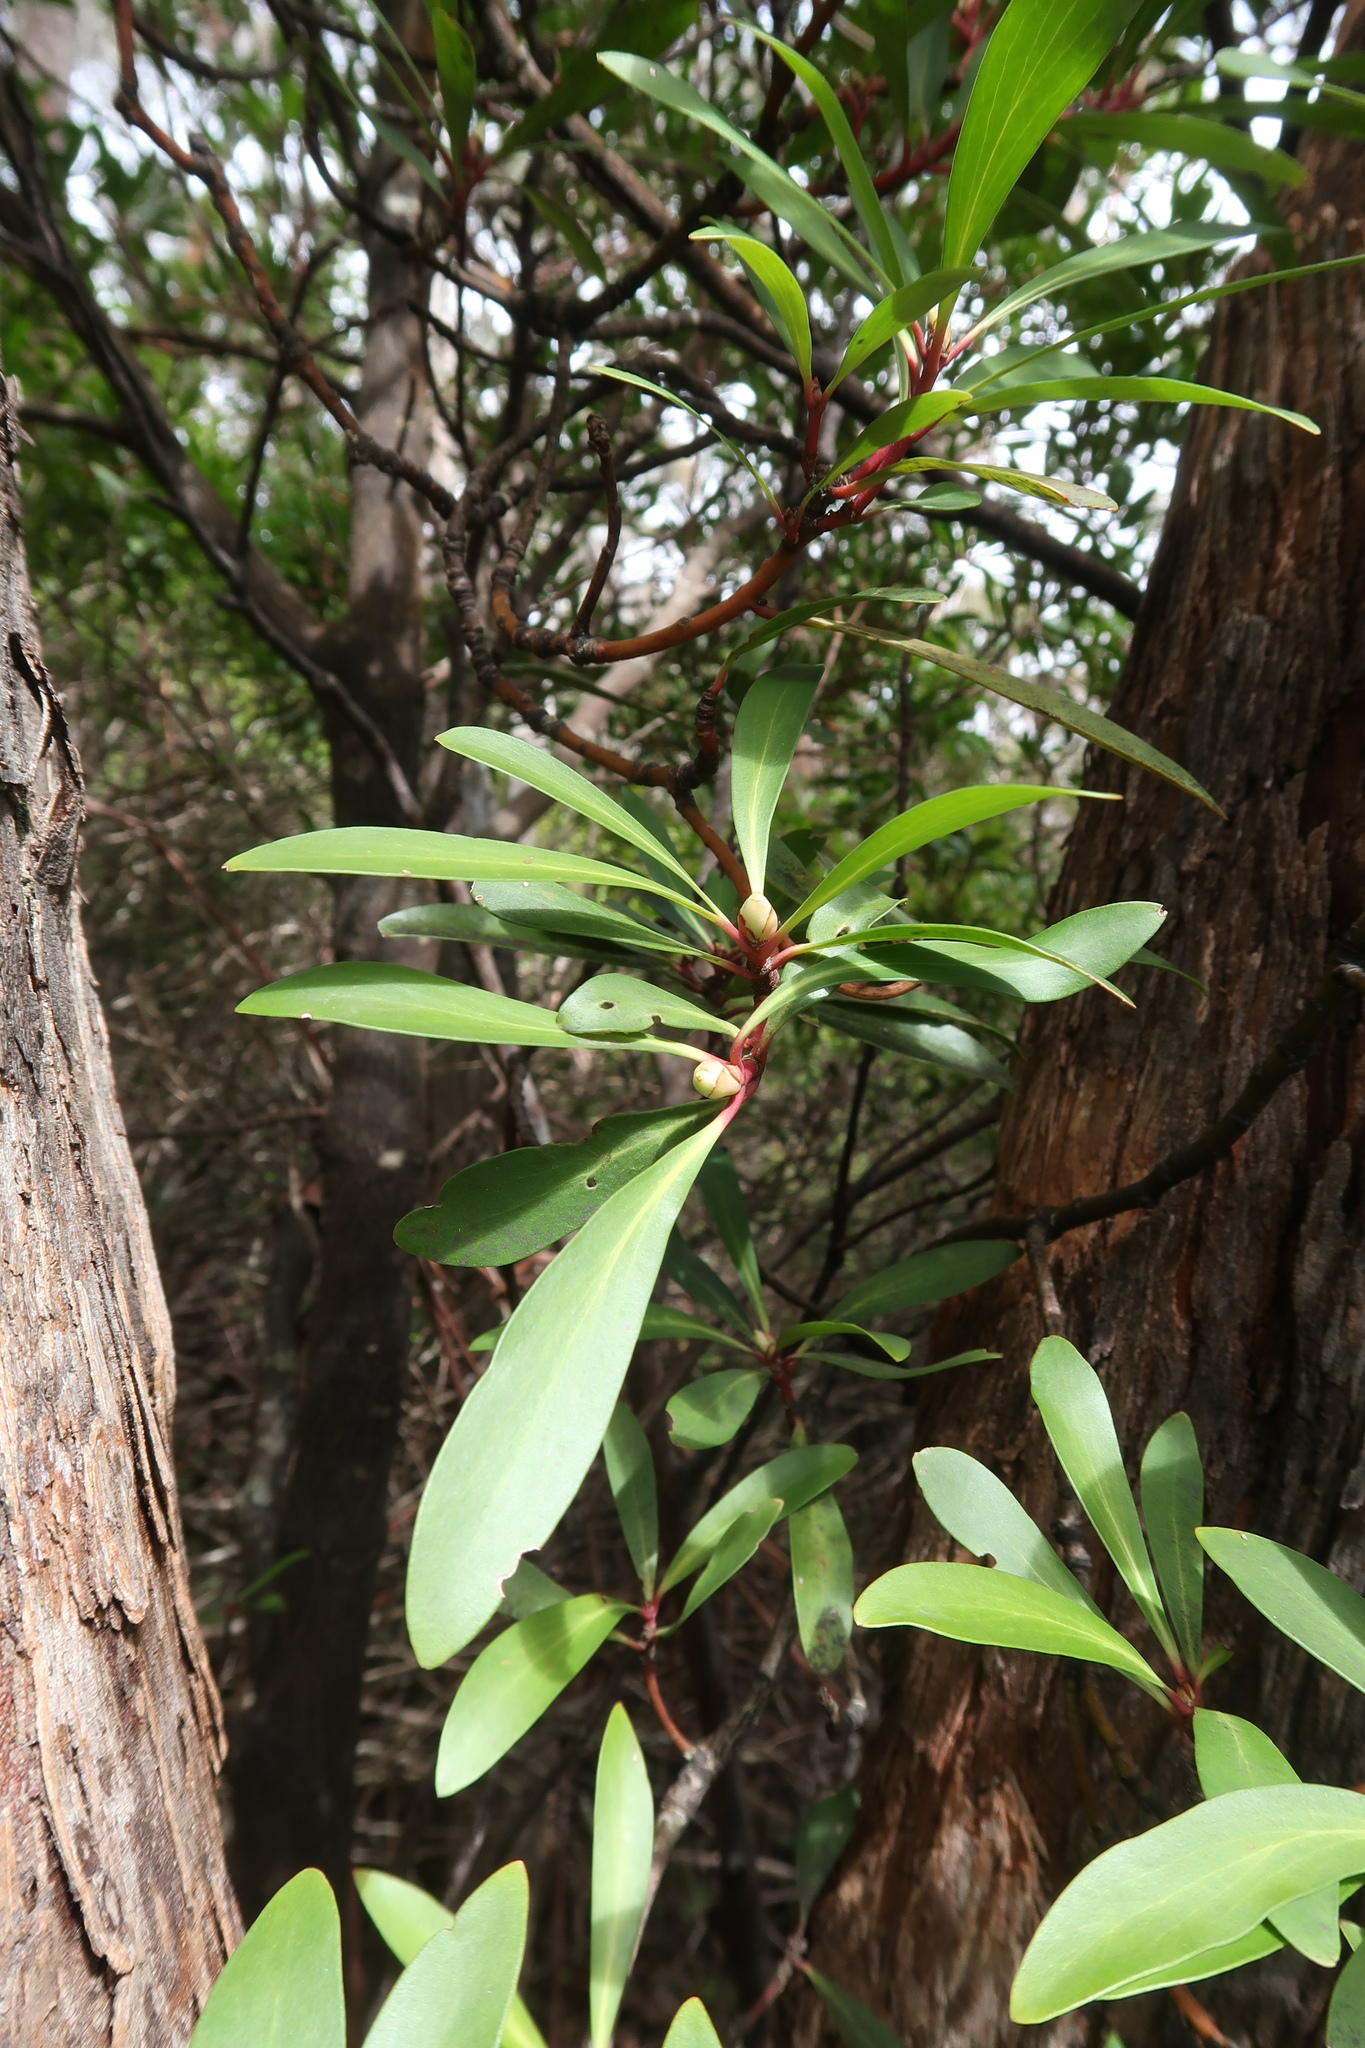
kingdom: Plantae
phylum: Tracheophyta
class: Magnoliopsida
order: Canellales
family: Winteraceae
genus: Drimys
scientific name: Drimys aromatica
